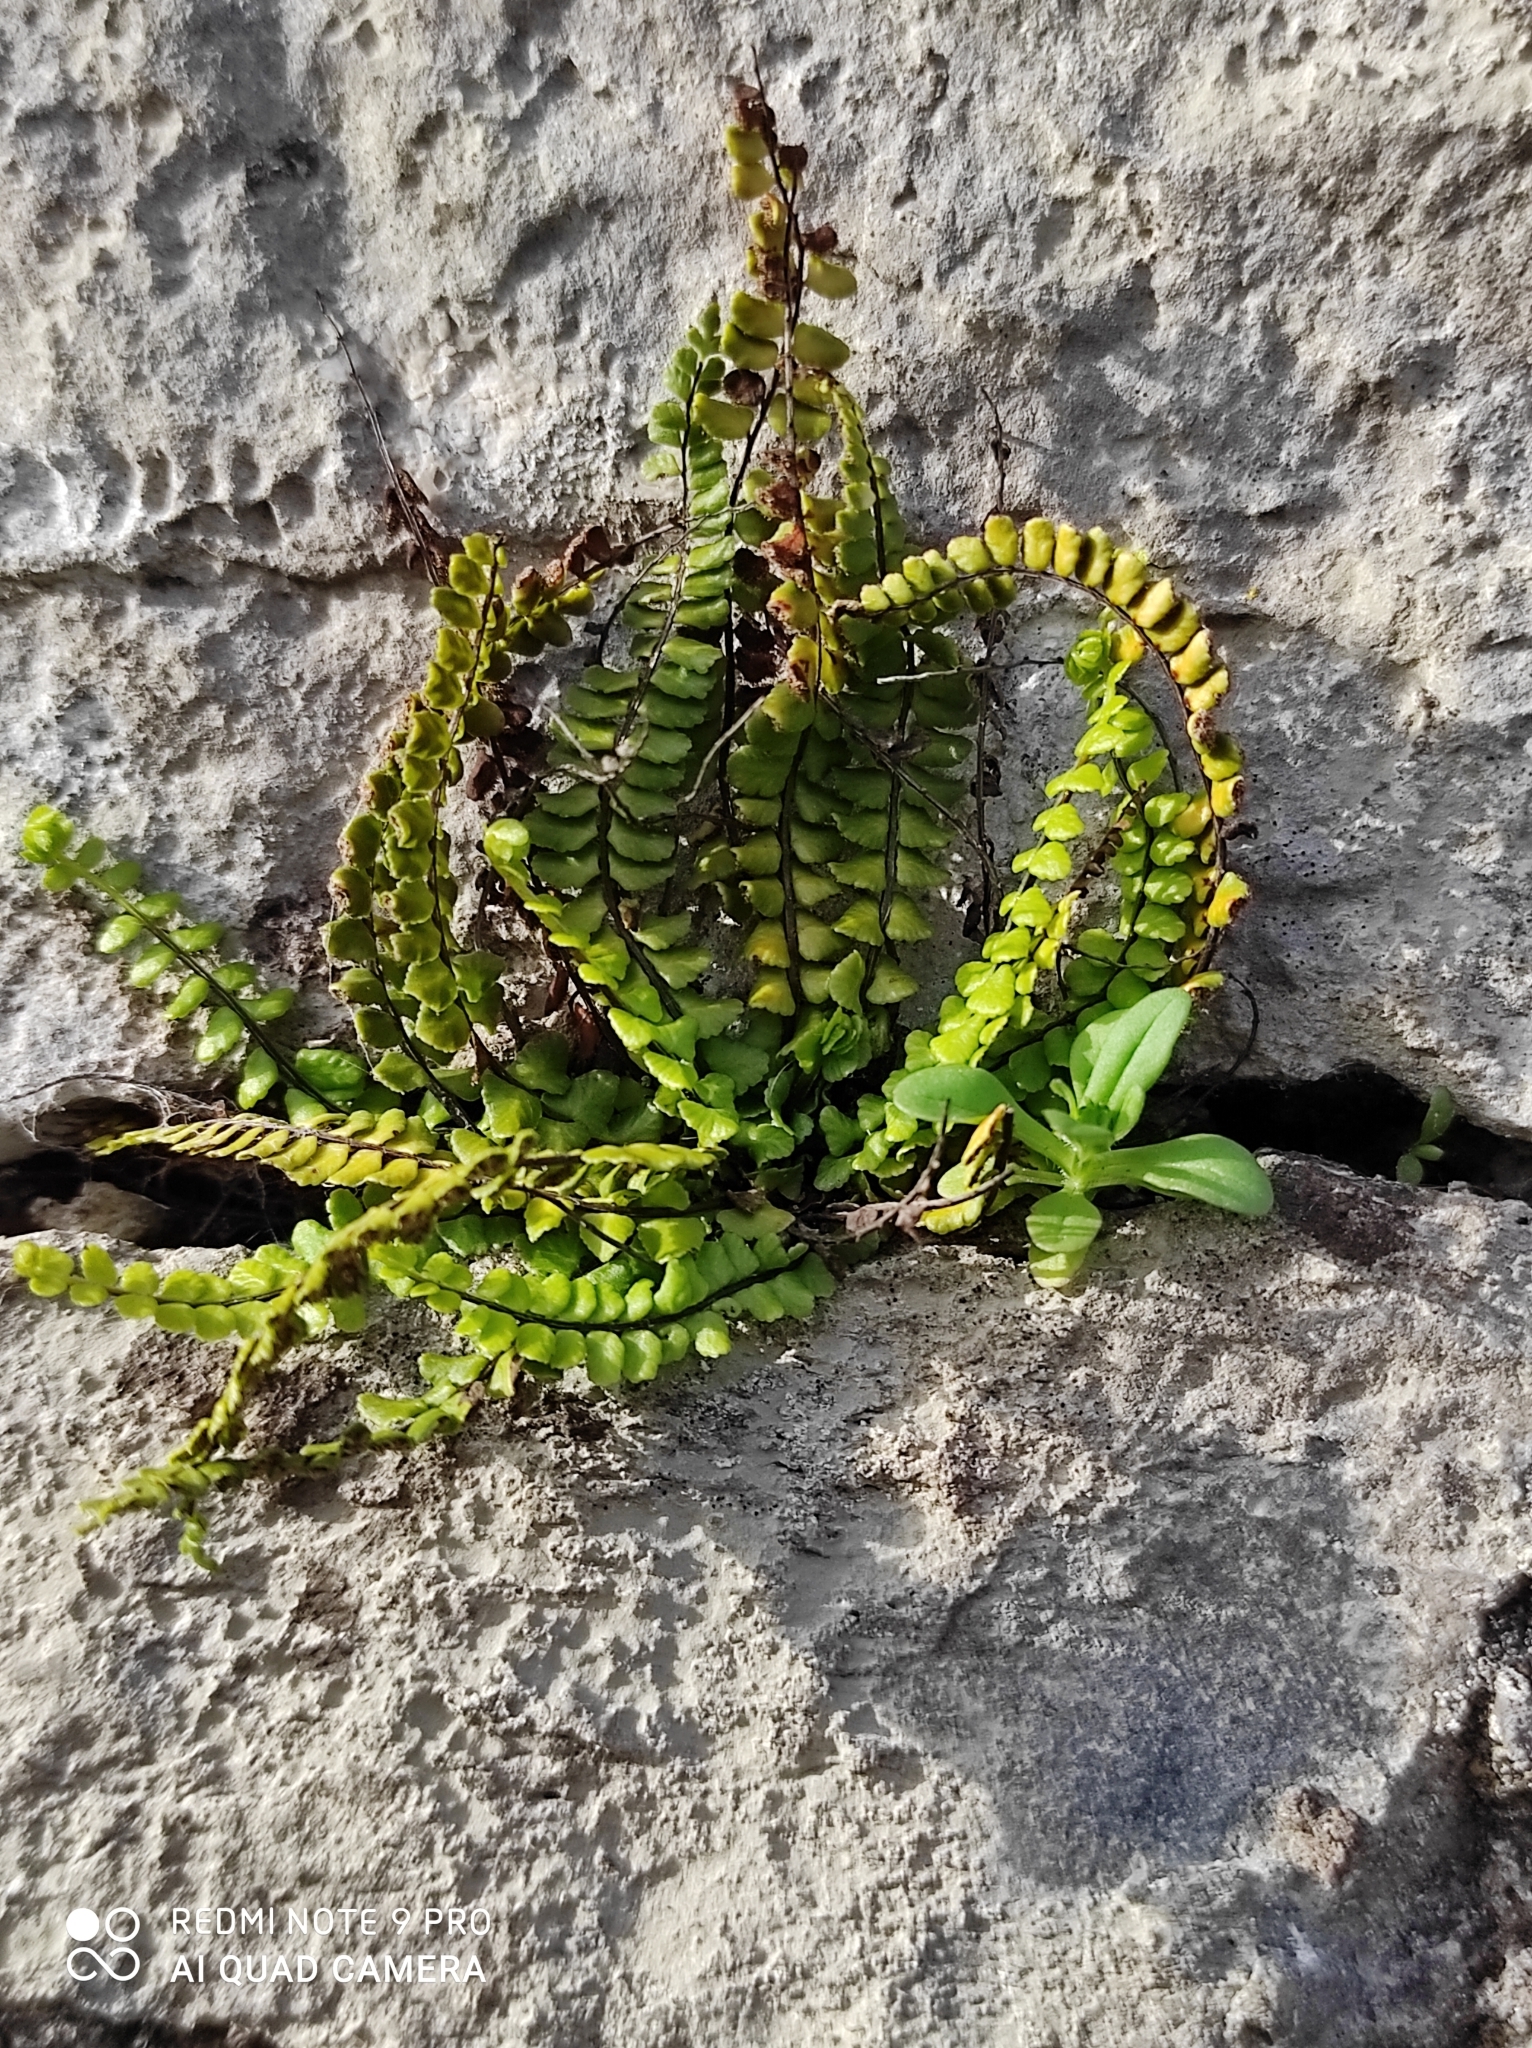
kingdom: Plantae
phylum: Tracheophyta
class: Polypodiopsida
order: Polypodiales
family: Aspleniaceae
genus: Asplenium
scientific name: Asplenium trichomanes
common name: Maidenhair spleenwort
